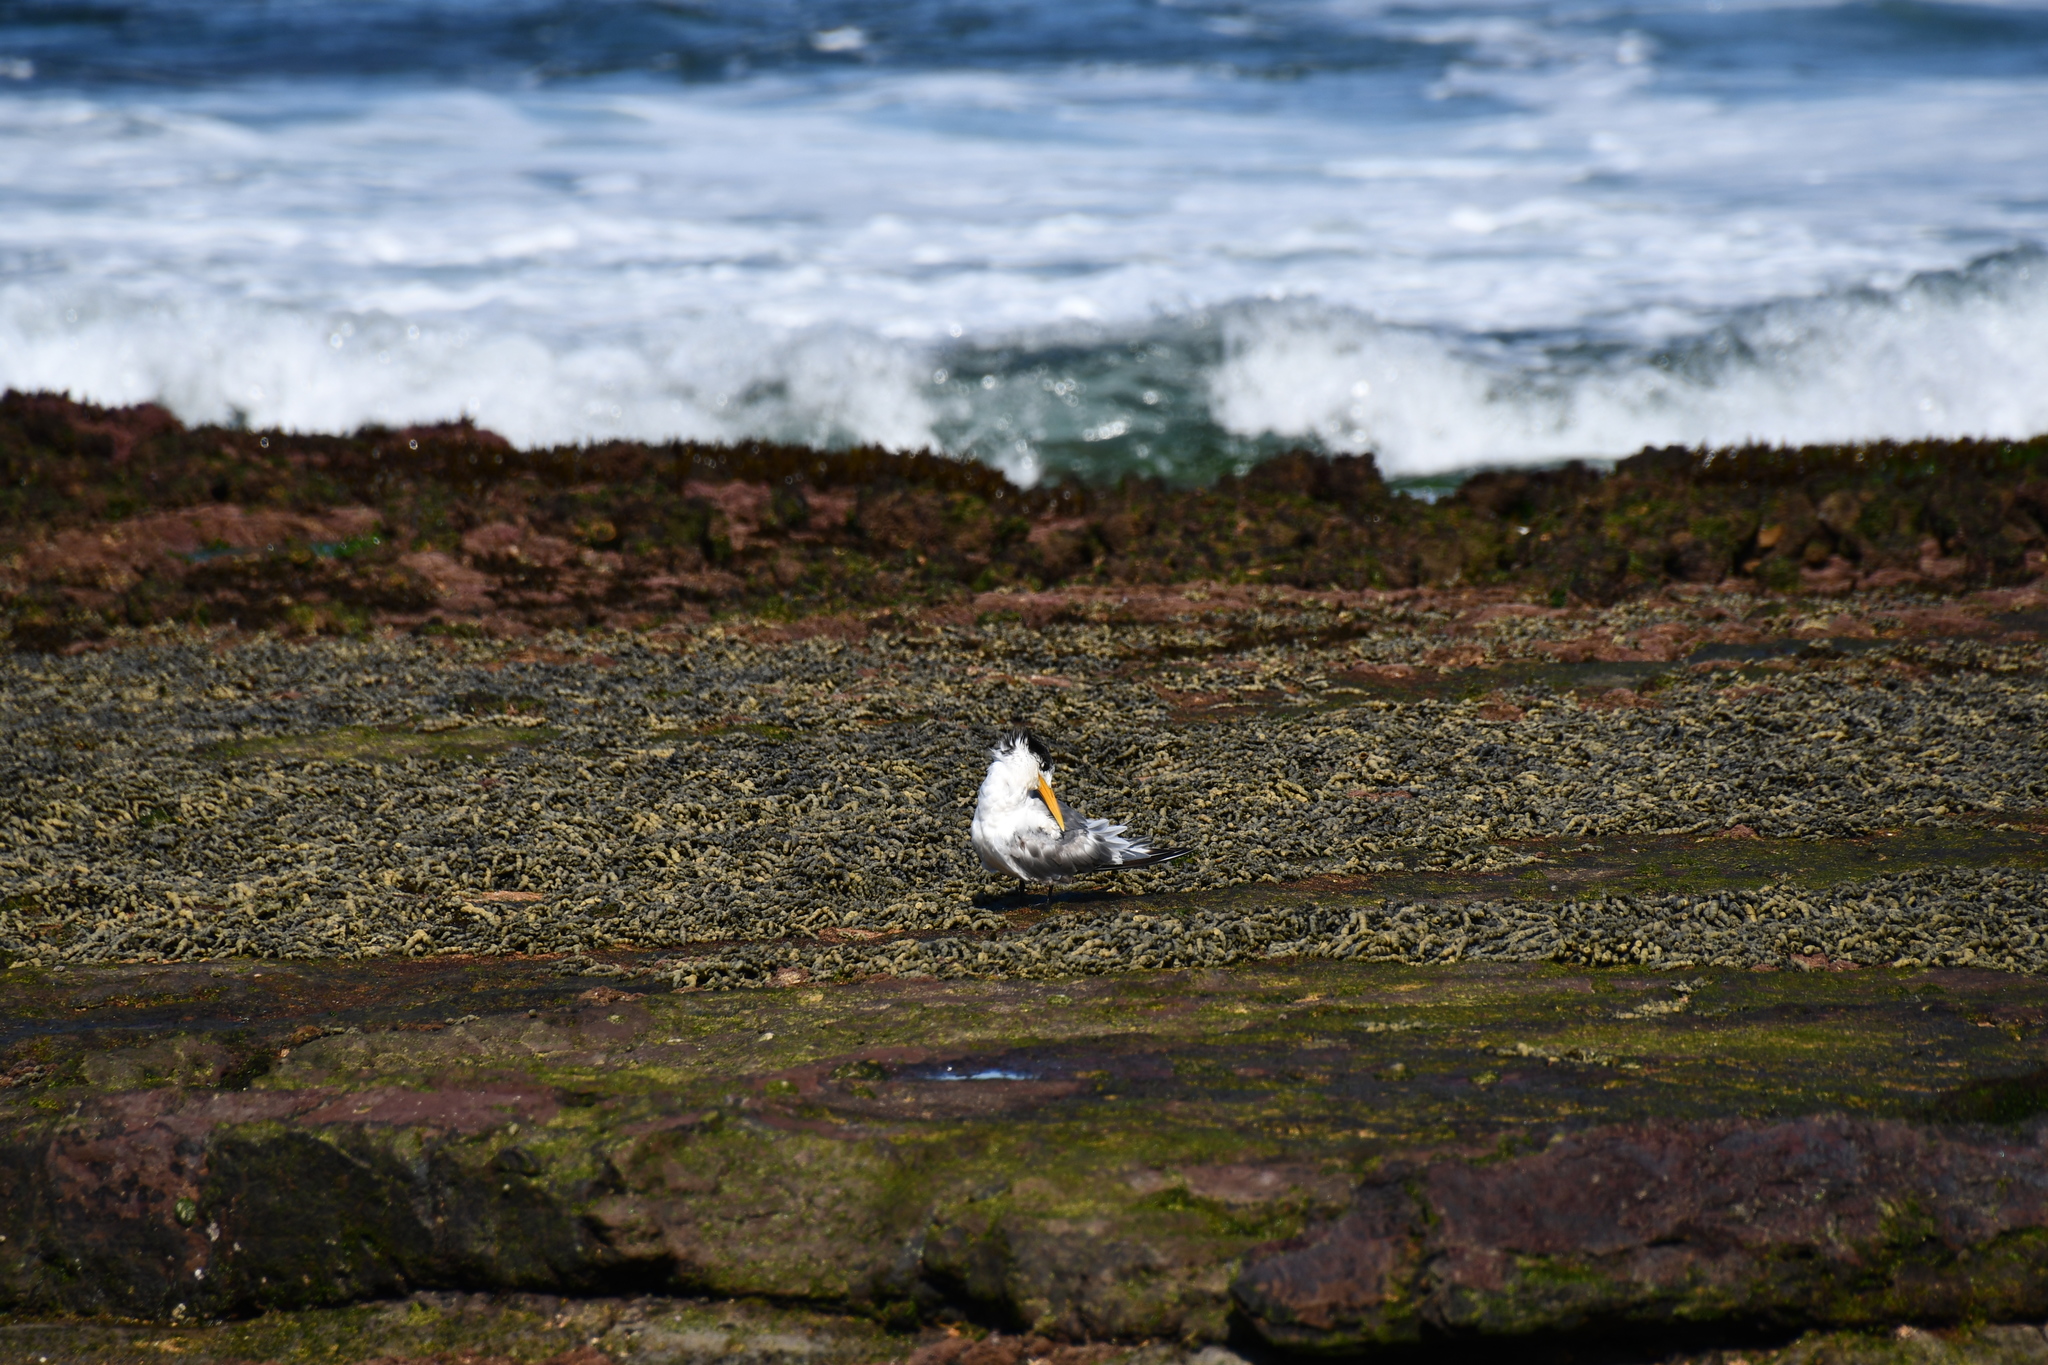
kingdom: Animalia
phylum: Chordata
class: Aves
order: Charadriiformes
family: Laridae
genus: Thalasseus
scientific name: Thalasseus bergii
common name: Greater crested tern
